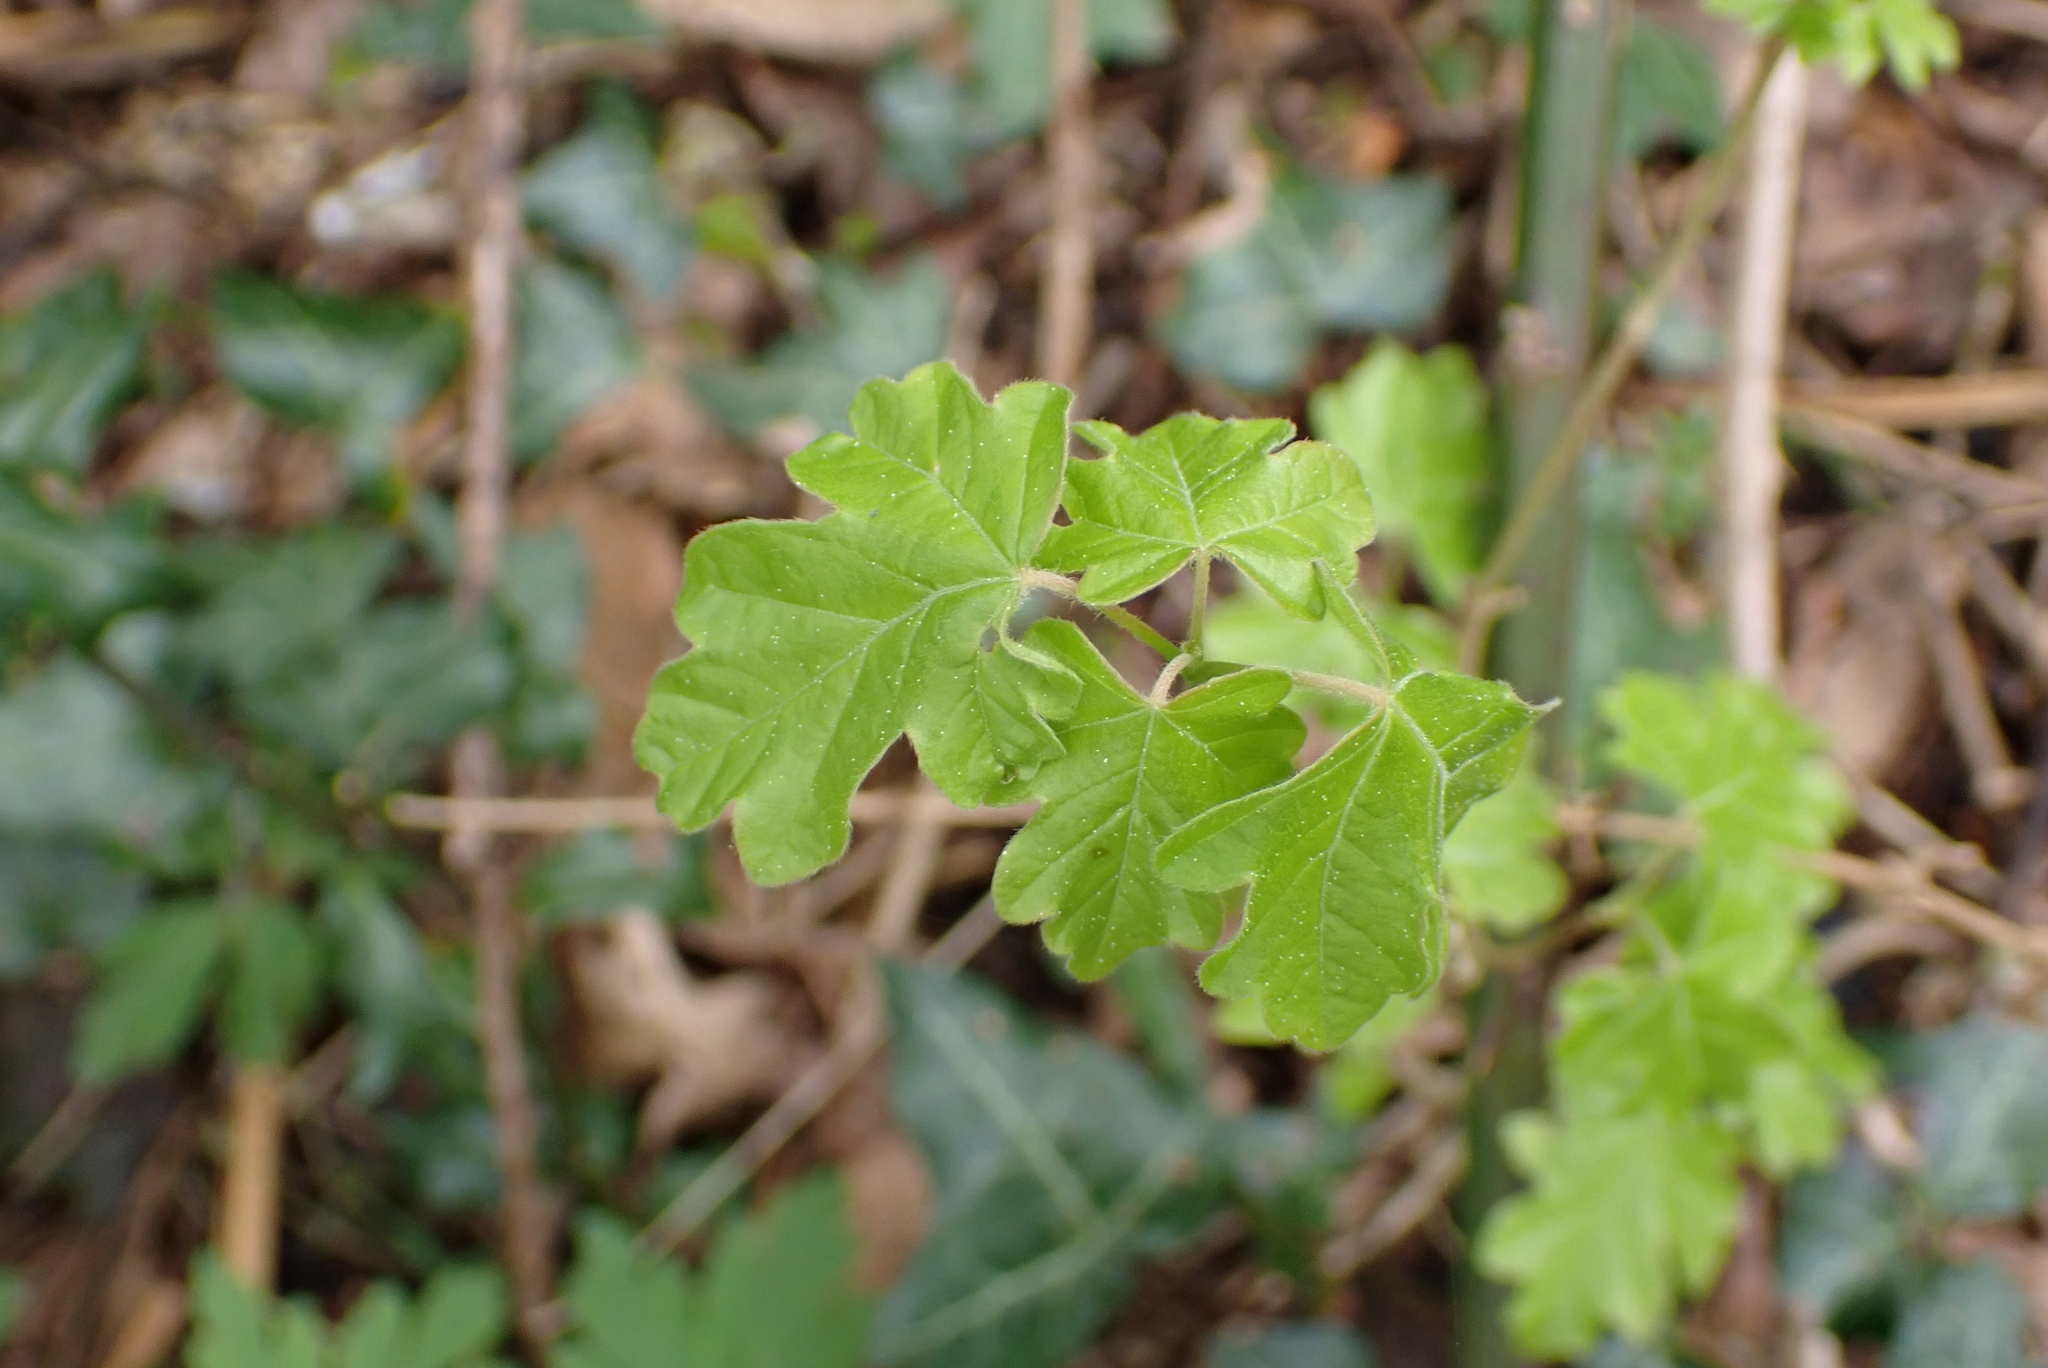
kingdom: Plantae
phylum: Tracheophyta
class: Magnoliopsida
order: Sapindales
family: Sapindaceae
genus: Acer
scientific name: Acer campestre
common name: Field maple
